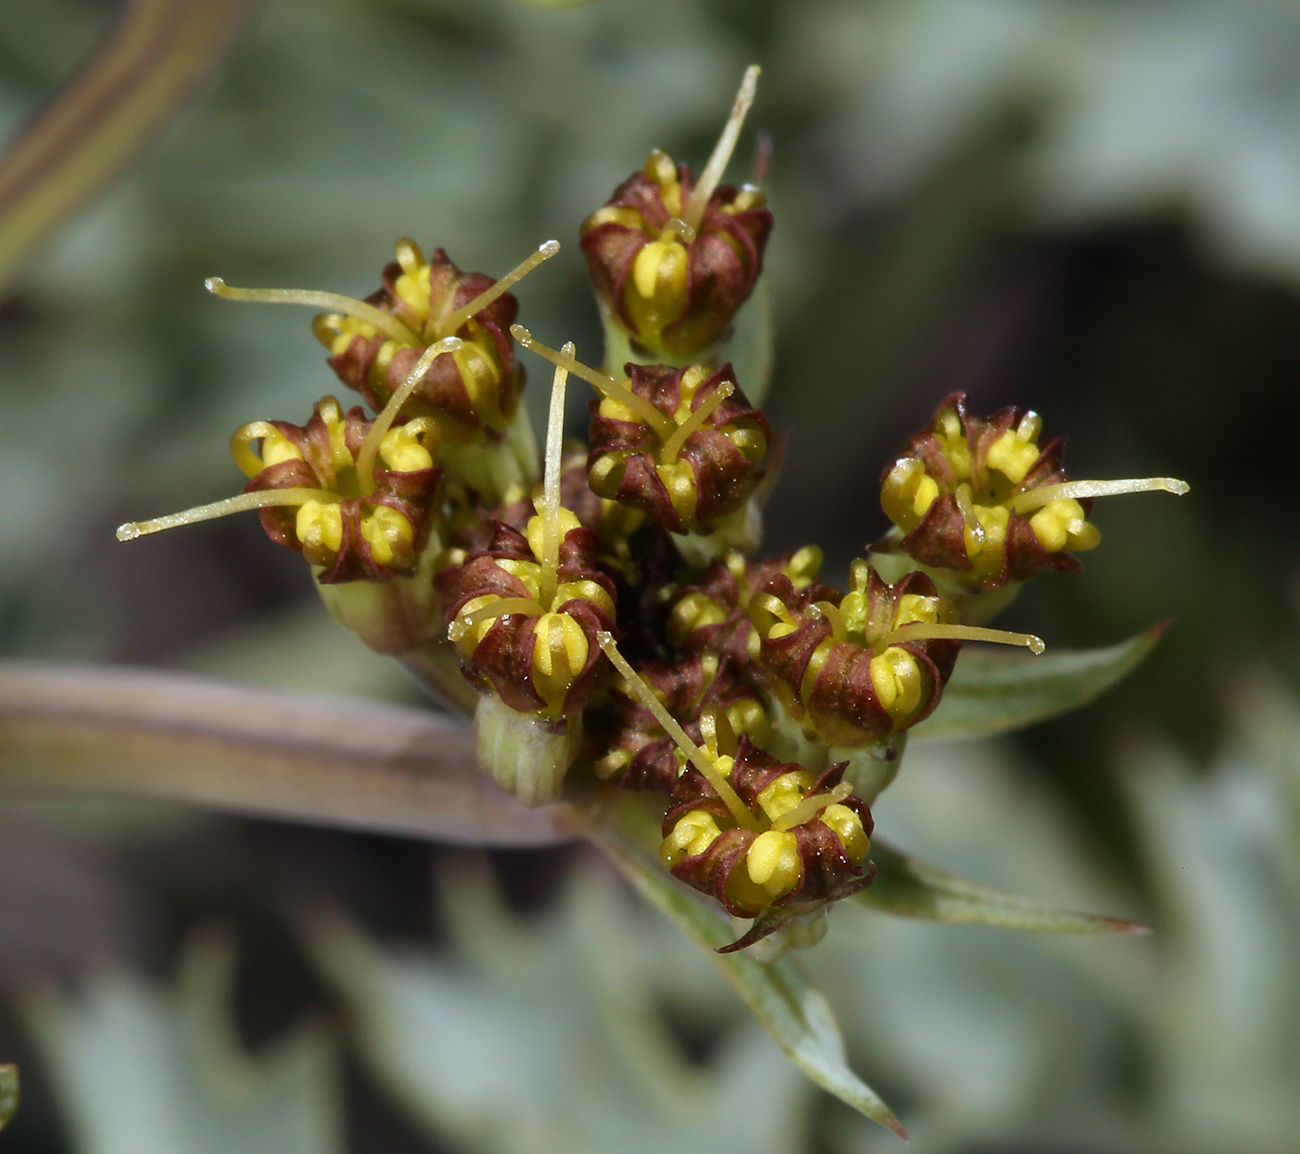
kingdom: Plantae
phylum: Tracheophyta
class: Magnoliopsida
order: Apiales
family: Apiaceae
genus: Lomatium
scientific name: Lomatium rigidum
